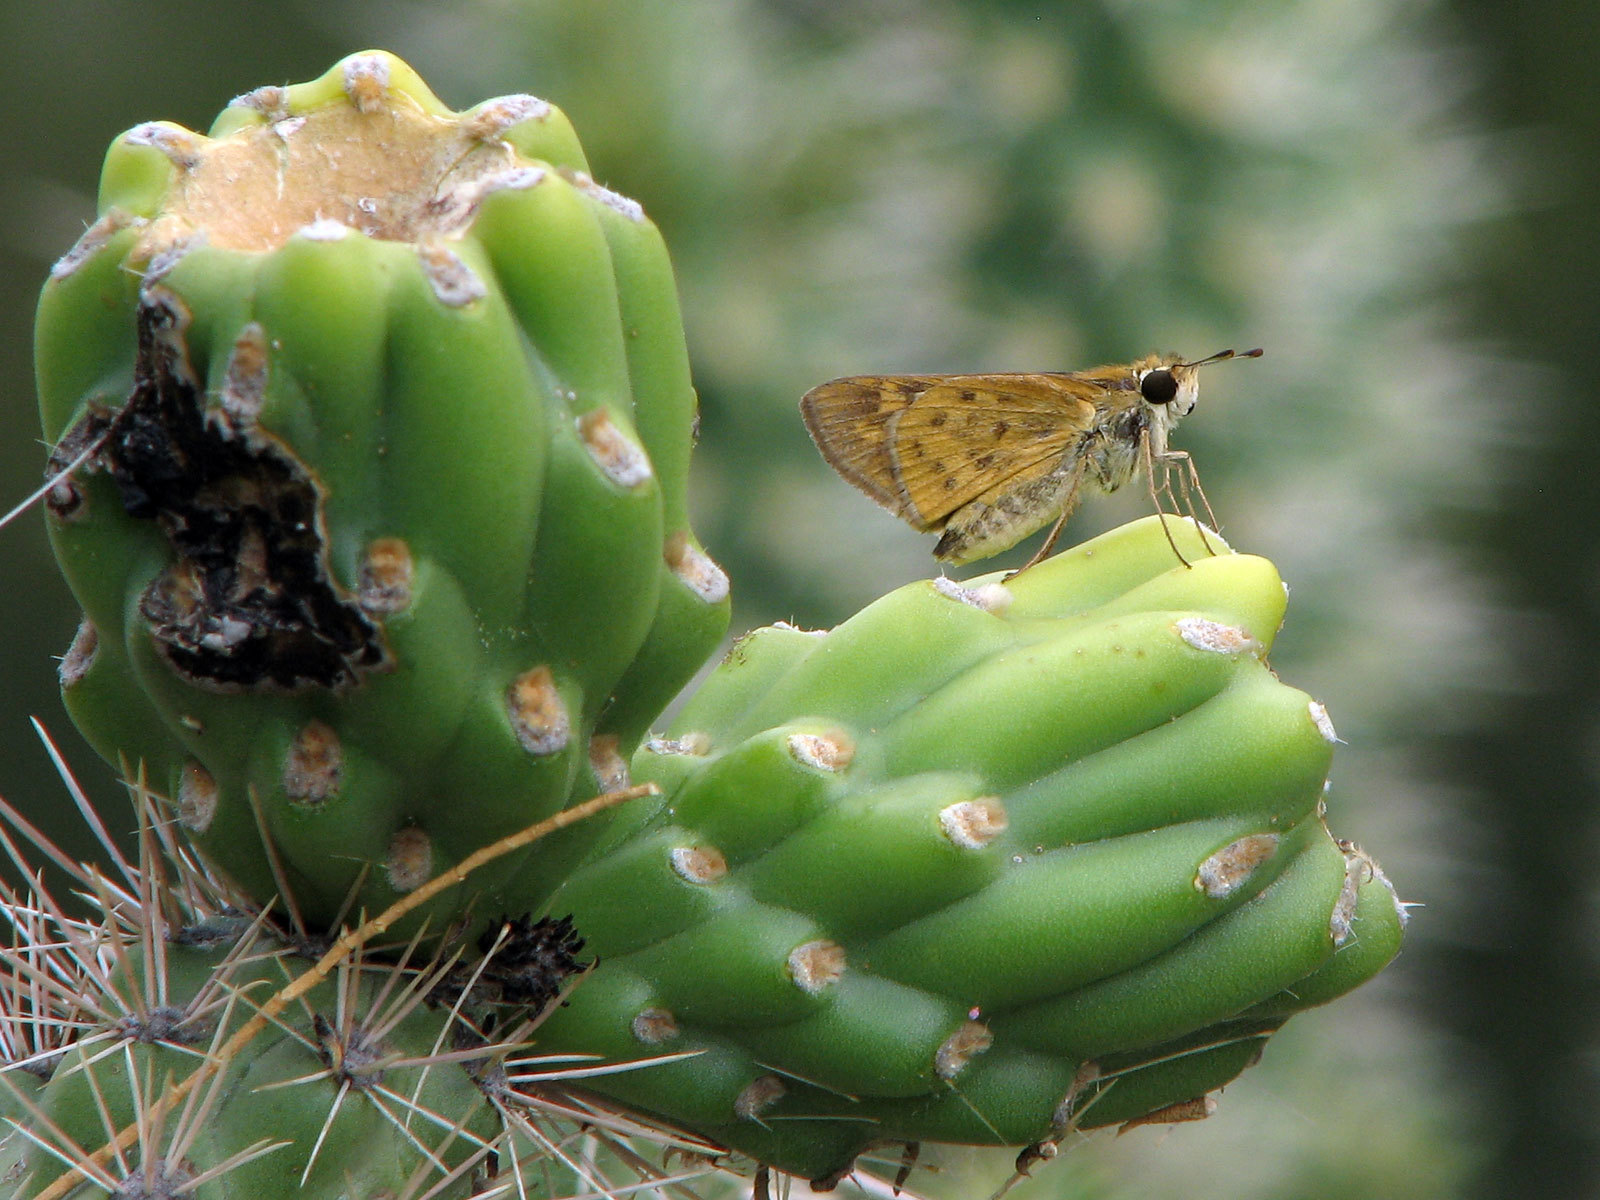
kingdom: Animalia
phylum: Arthropoda
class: Insecta
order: Lepidoptera
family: Hesperiidae
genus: Hylephila
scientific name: Hylephila phyleus
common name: Fiery skipper
